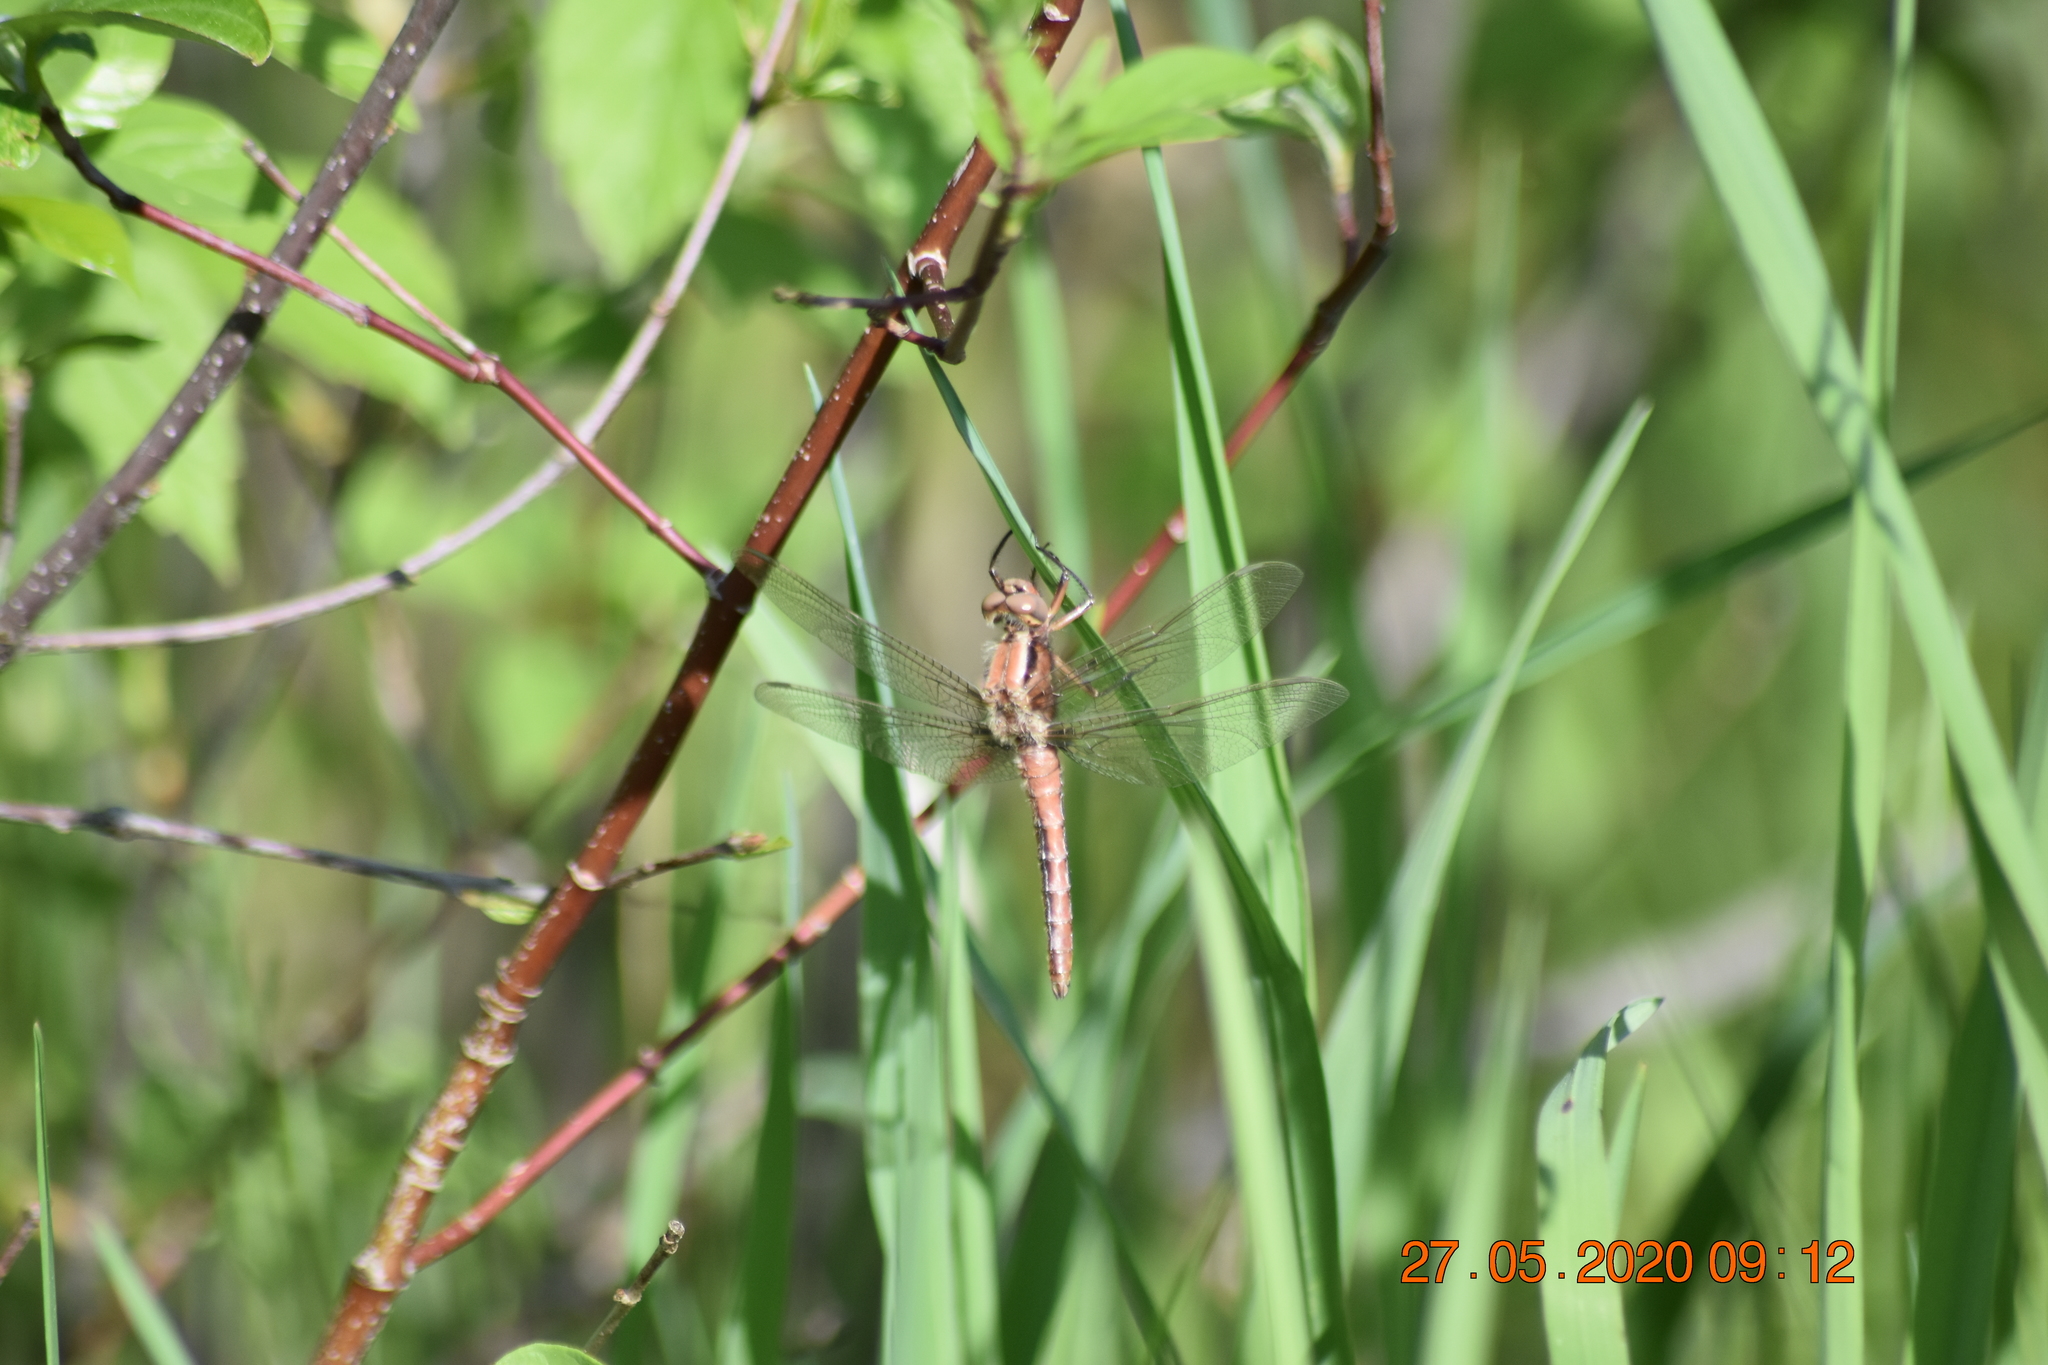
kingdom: Animalia
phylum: Arthropoda
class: Insecta
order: Odonata
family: Libellulidae
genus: Ladona
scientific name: Ladona julia
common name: Chalk-fronted corporal
